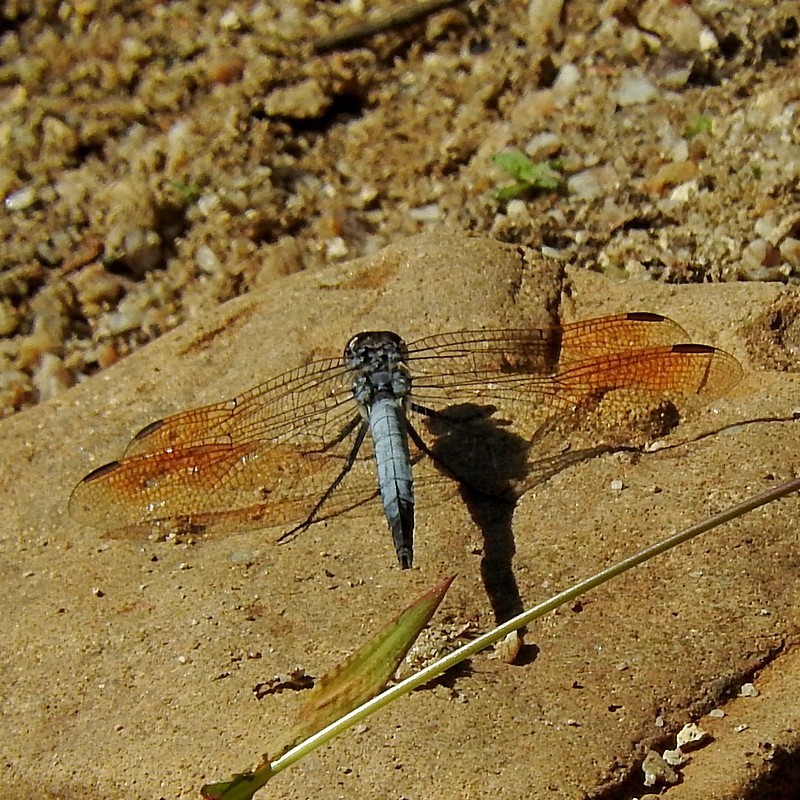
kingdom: Animalia
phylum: Arthropoda
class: Insecta
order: Odonata
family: Libellulidae
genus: Orthetrum
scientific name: Orthetrum caledonicum
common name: Blue skimmer
